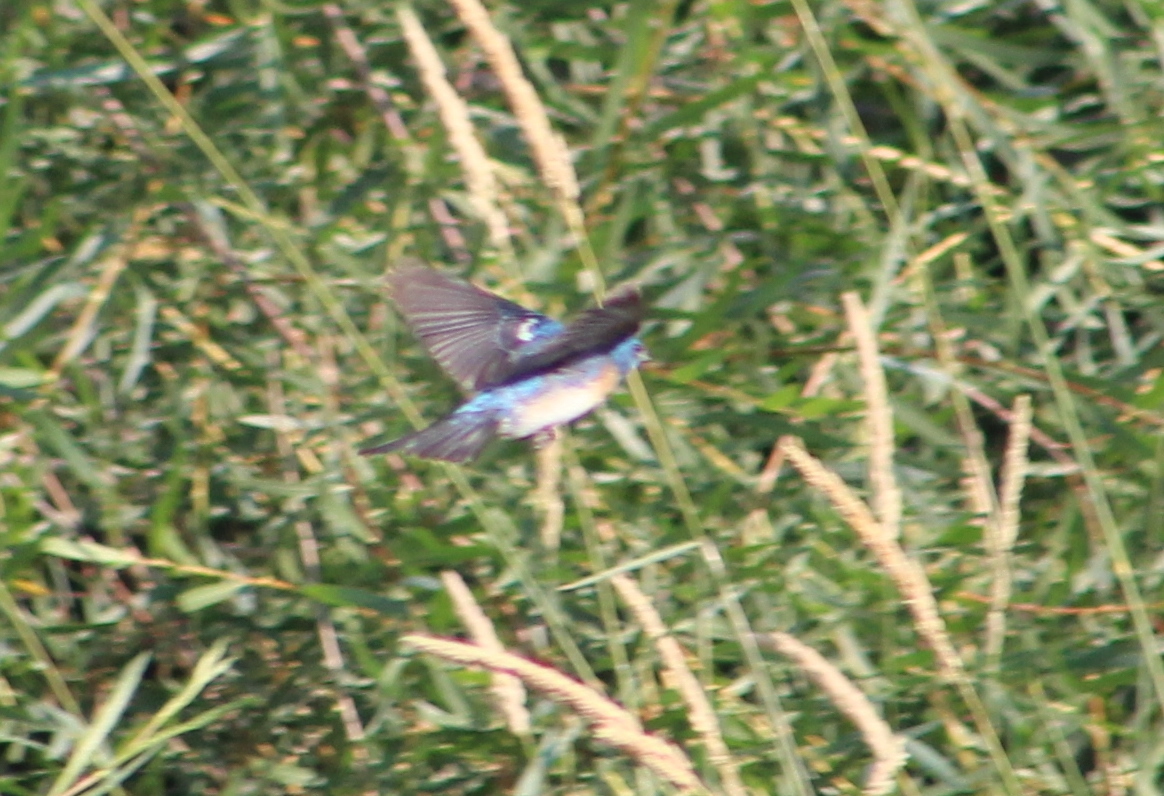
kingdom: Animalia
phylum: Chordata
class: Aves
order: Passeriformes
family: Cardinalidae
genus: Passerina
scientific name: Passerina amoena
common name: Lazuli bunting
